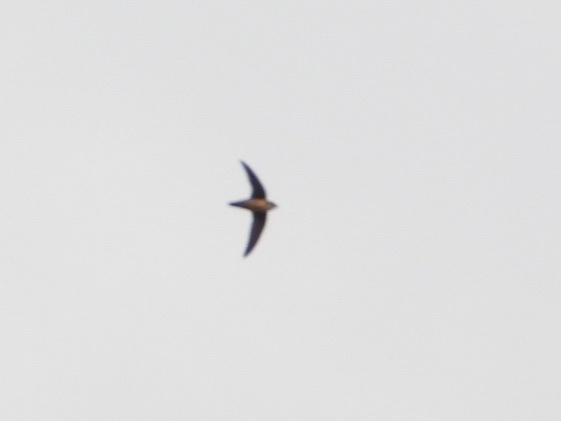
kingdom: Animalia
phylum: Chordata
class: Aves
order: Apodiformes
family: Apodidae
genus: Chaetura
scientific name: Chaetura vauxi
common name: Vaux's swift
